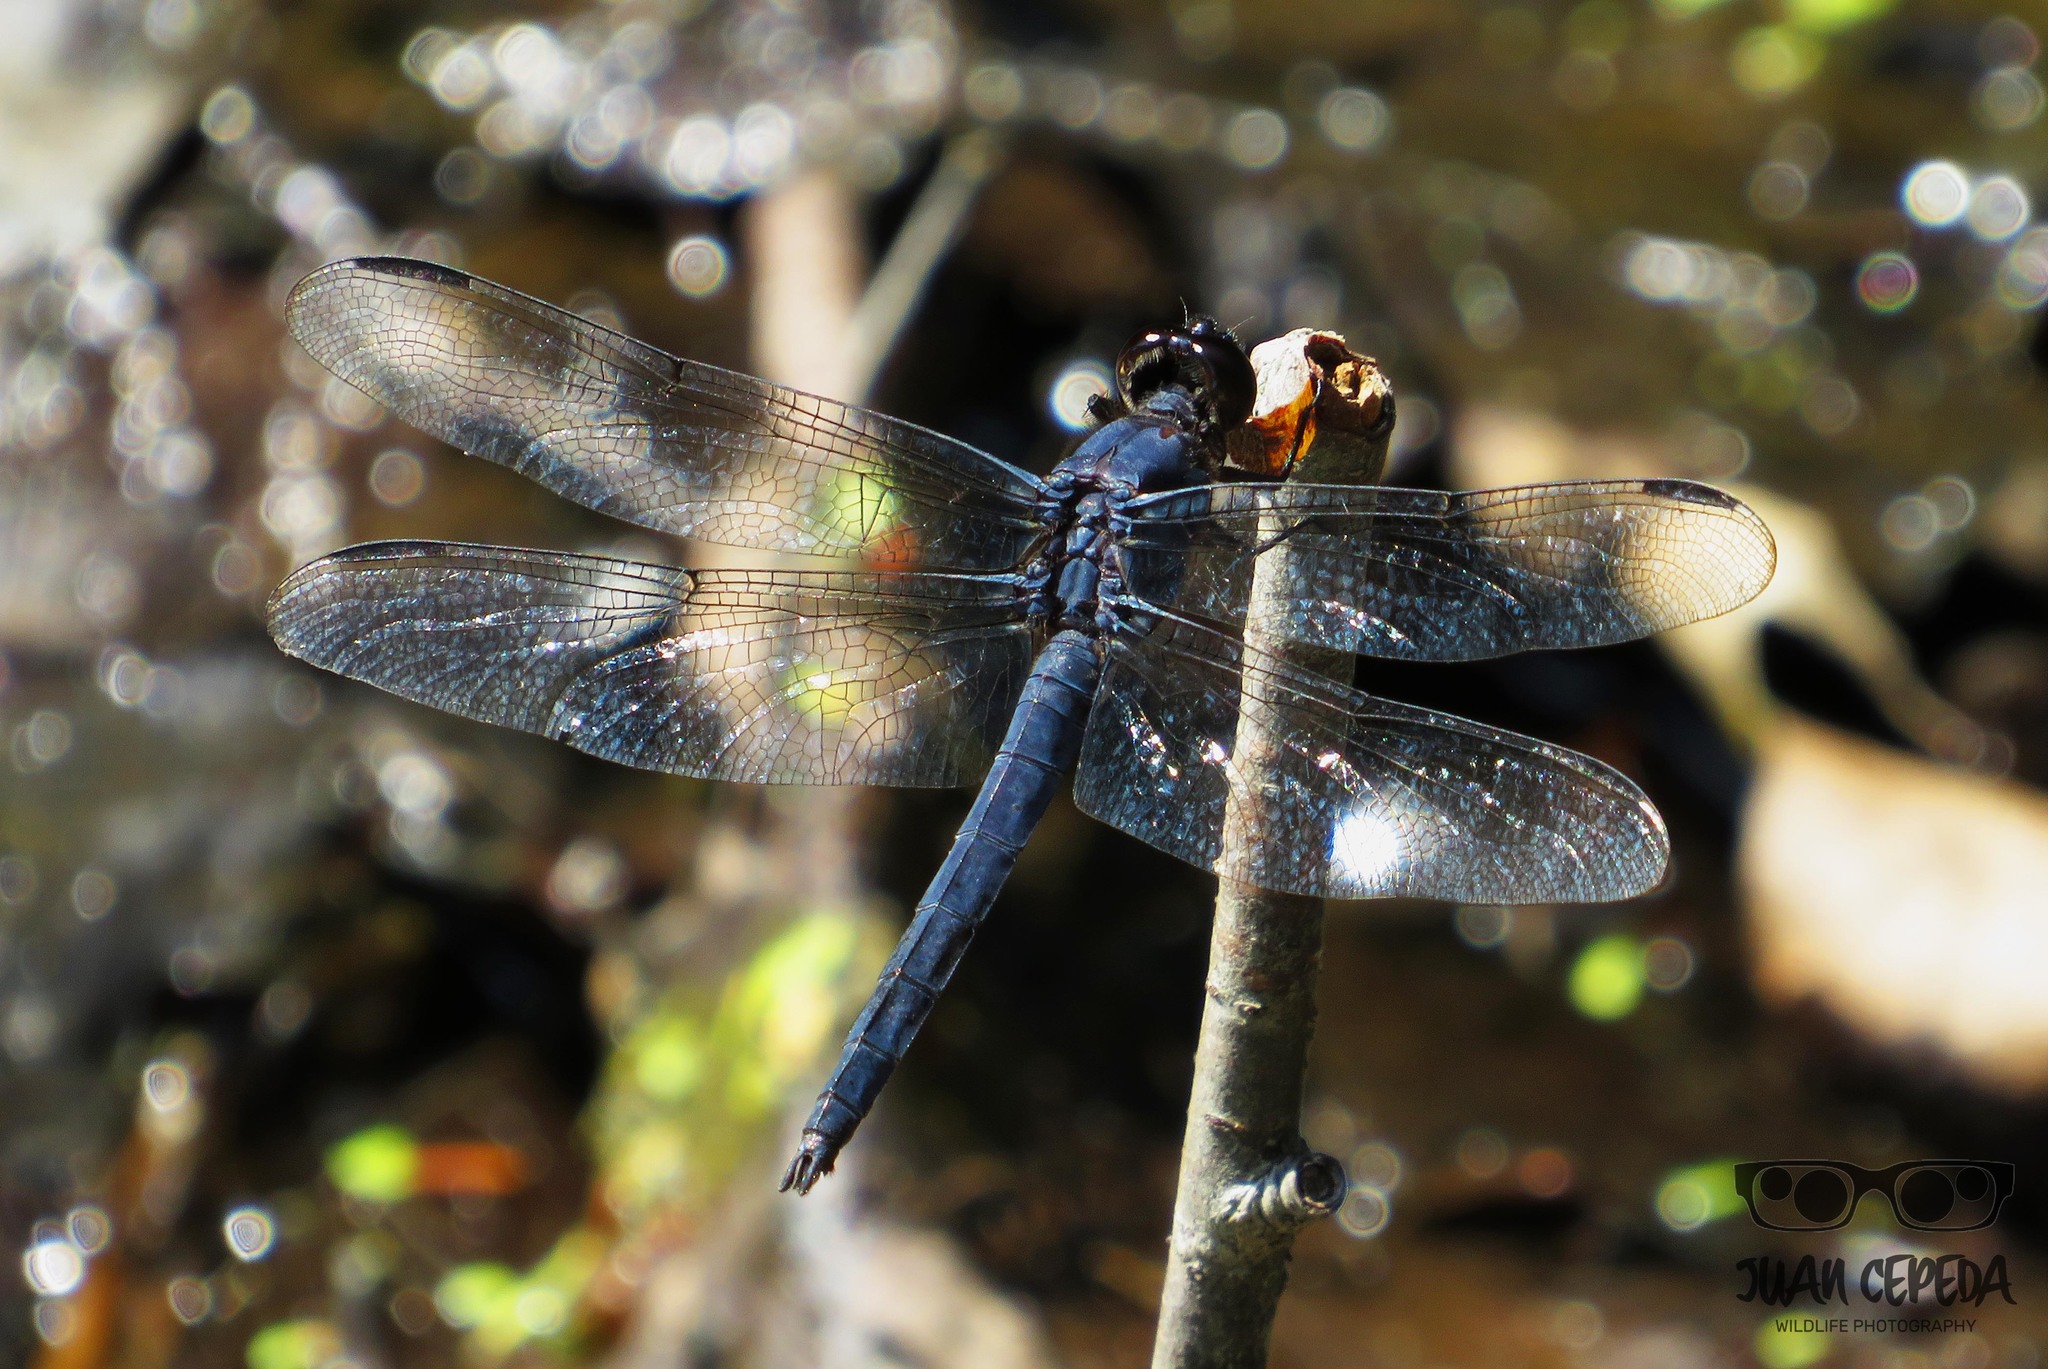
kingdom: Animalia
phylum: Arthropoda
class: Insecta
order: Odonata
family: Libellulidae
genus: Libellula
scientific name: Libellula incesta
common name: Slaty skimmer
